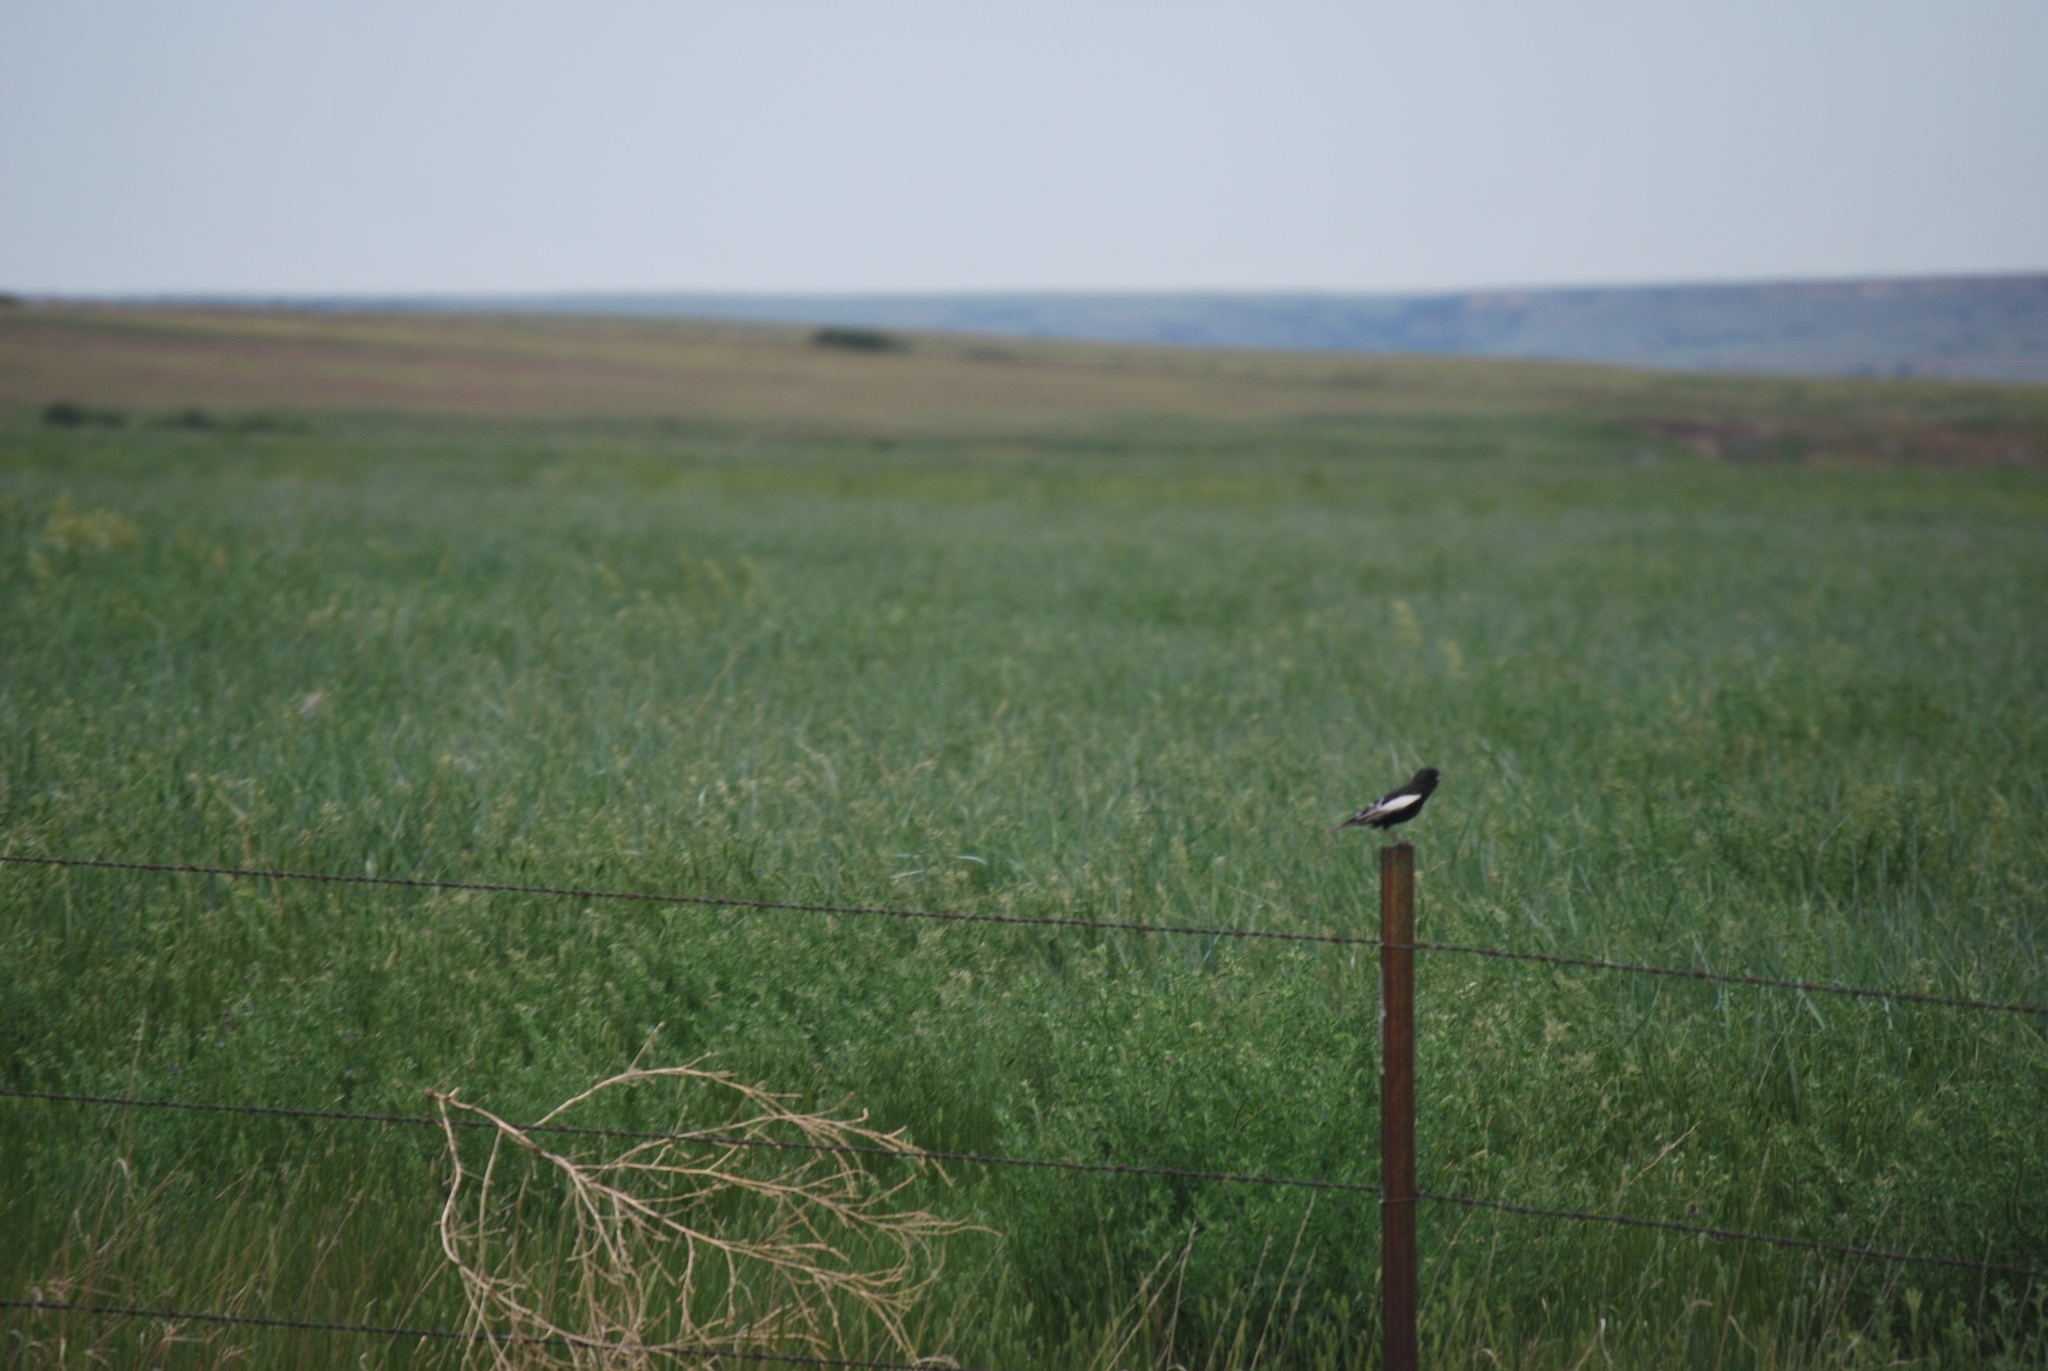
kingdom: Animalia
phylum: Chordata
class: Aves
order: Passeriformes
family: Passerellidae
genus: Calamospiza
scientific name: Calamospiza melanocorys
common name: Lark bunting
